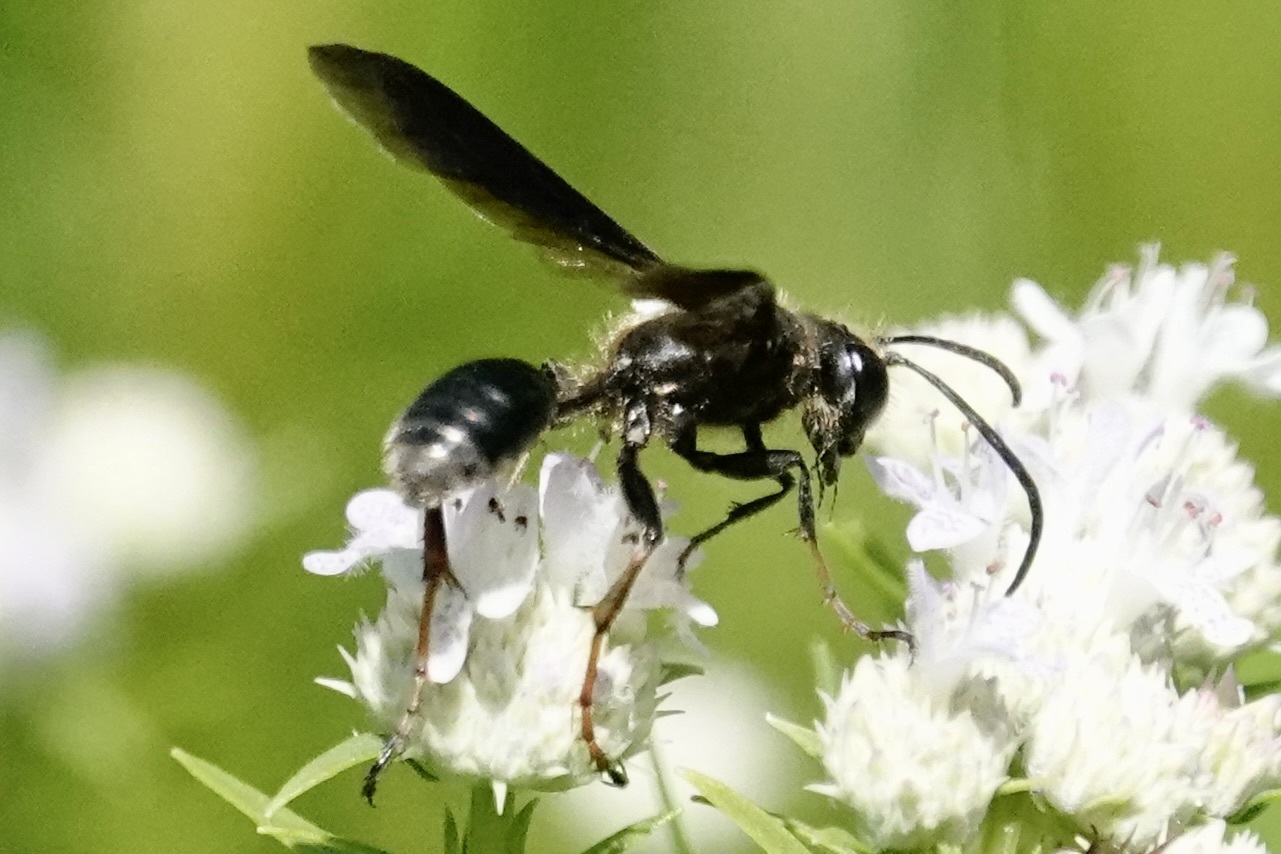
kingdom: Animalia
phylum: Arthropoda
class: Insecta
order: Hymenoptera
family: Sphecidae
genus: Isodontia
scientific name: Isodontia auripes
